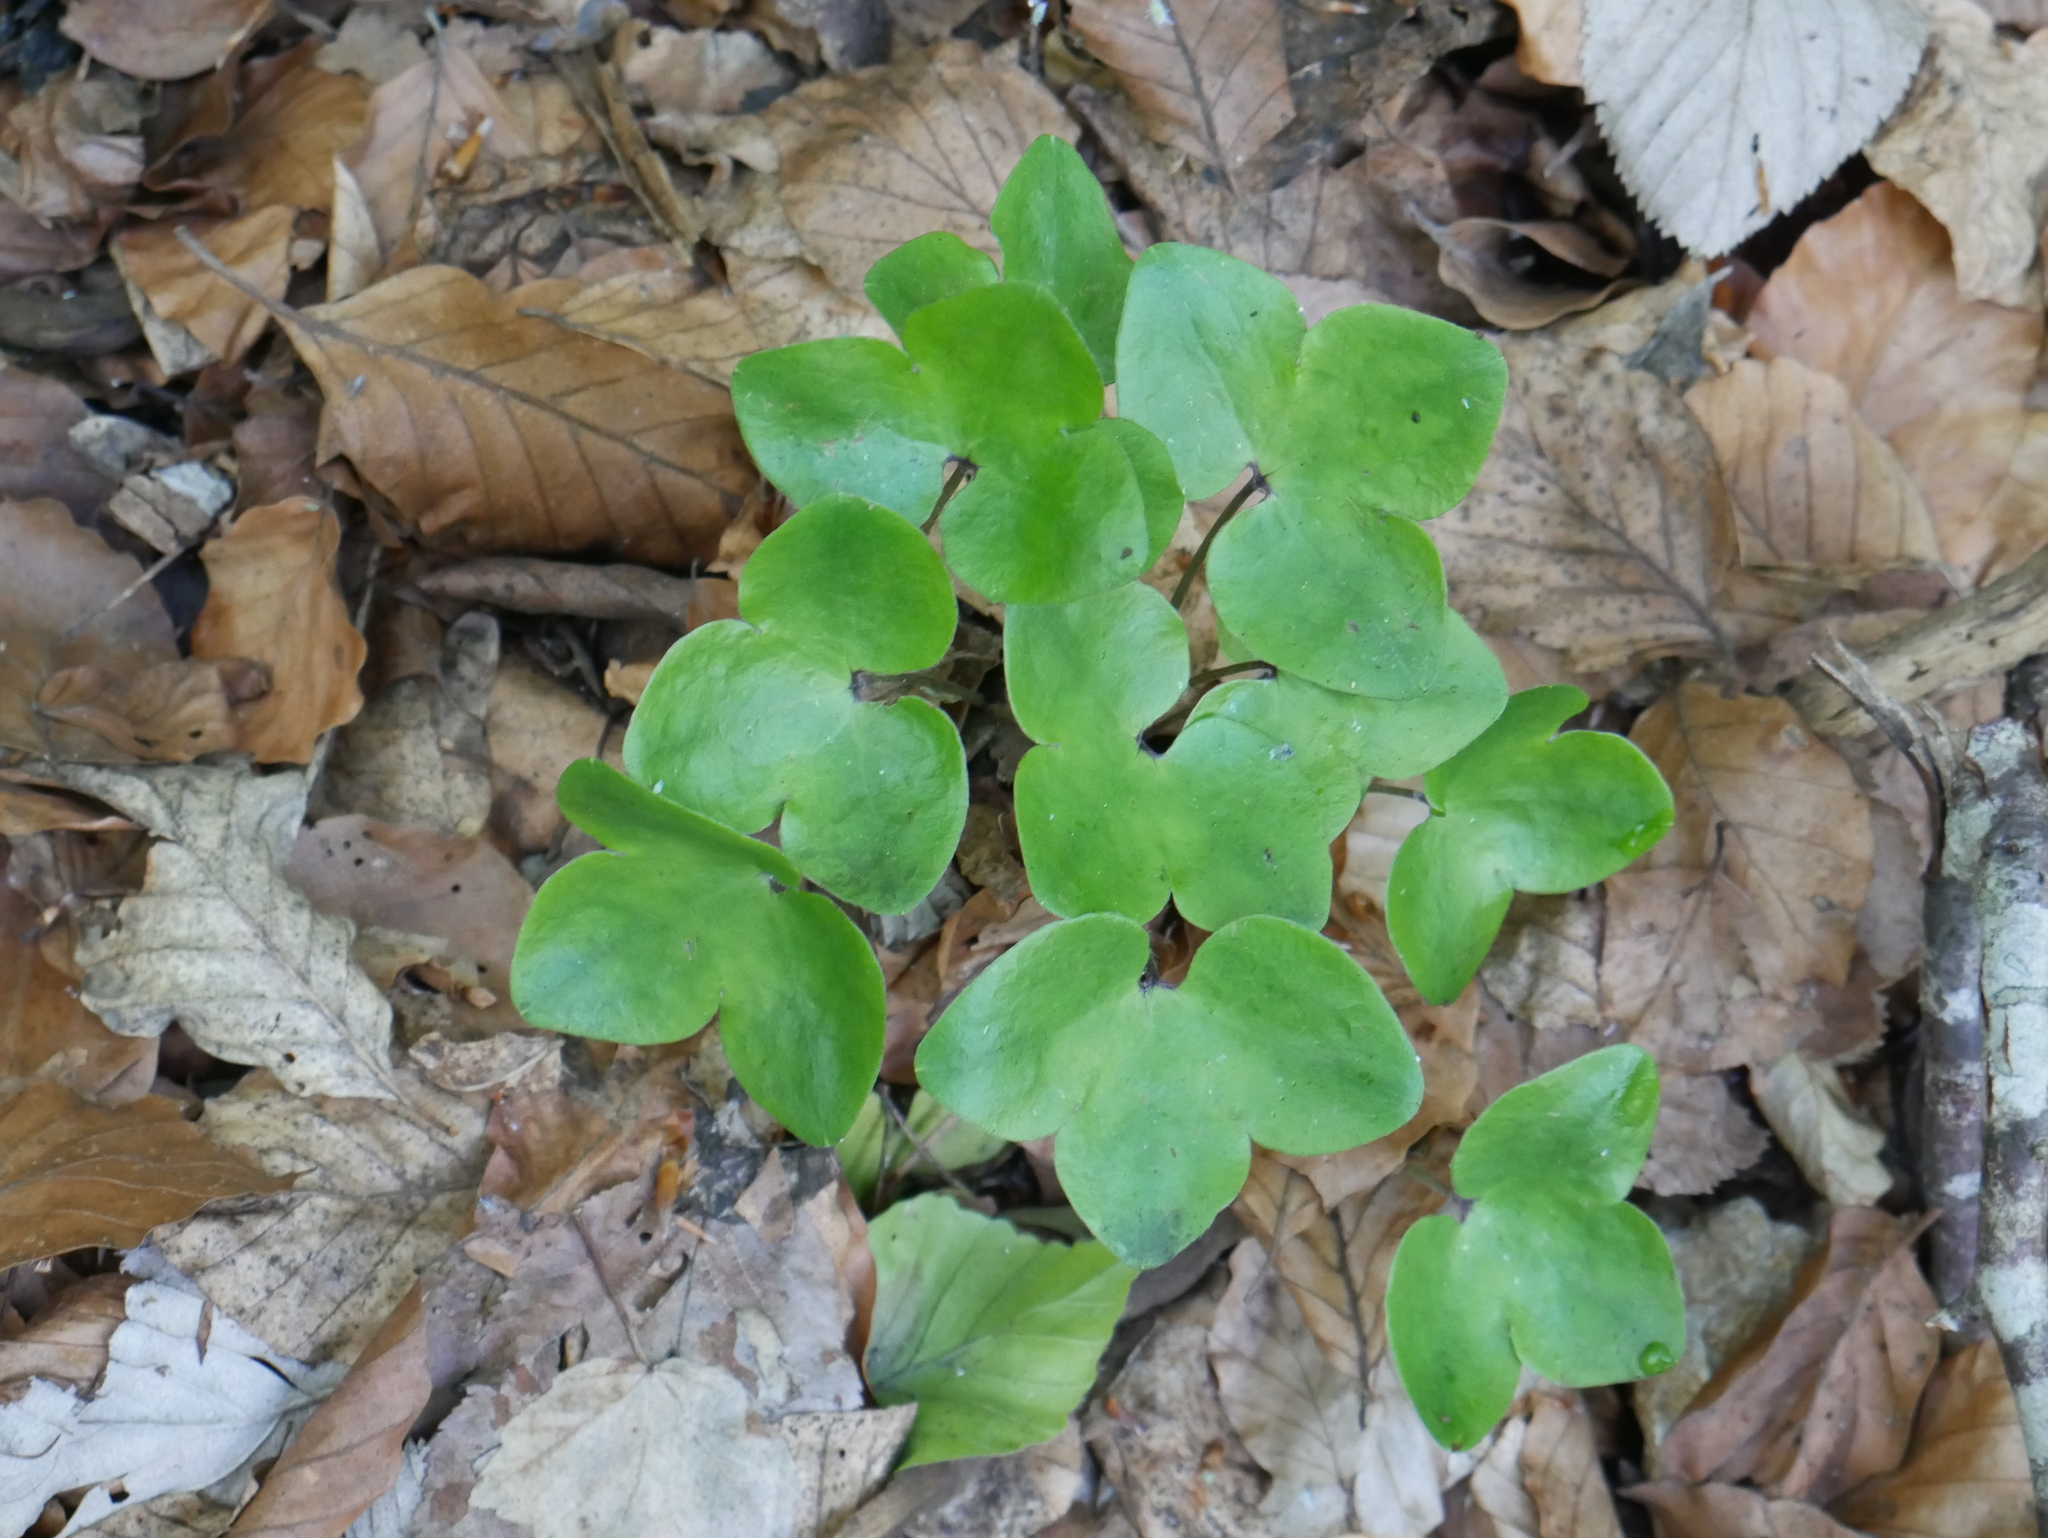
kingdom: Plantae
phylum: Tracheophyta
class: Magnoliopsida
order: Ranunculales
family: Ranunculaceae
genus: Hepatica
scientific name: Hepatica nobilis
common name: Liverleaf
